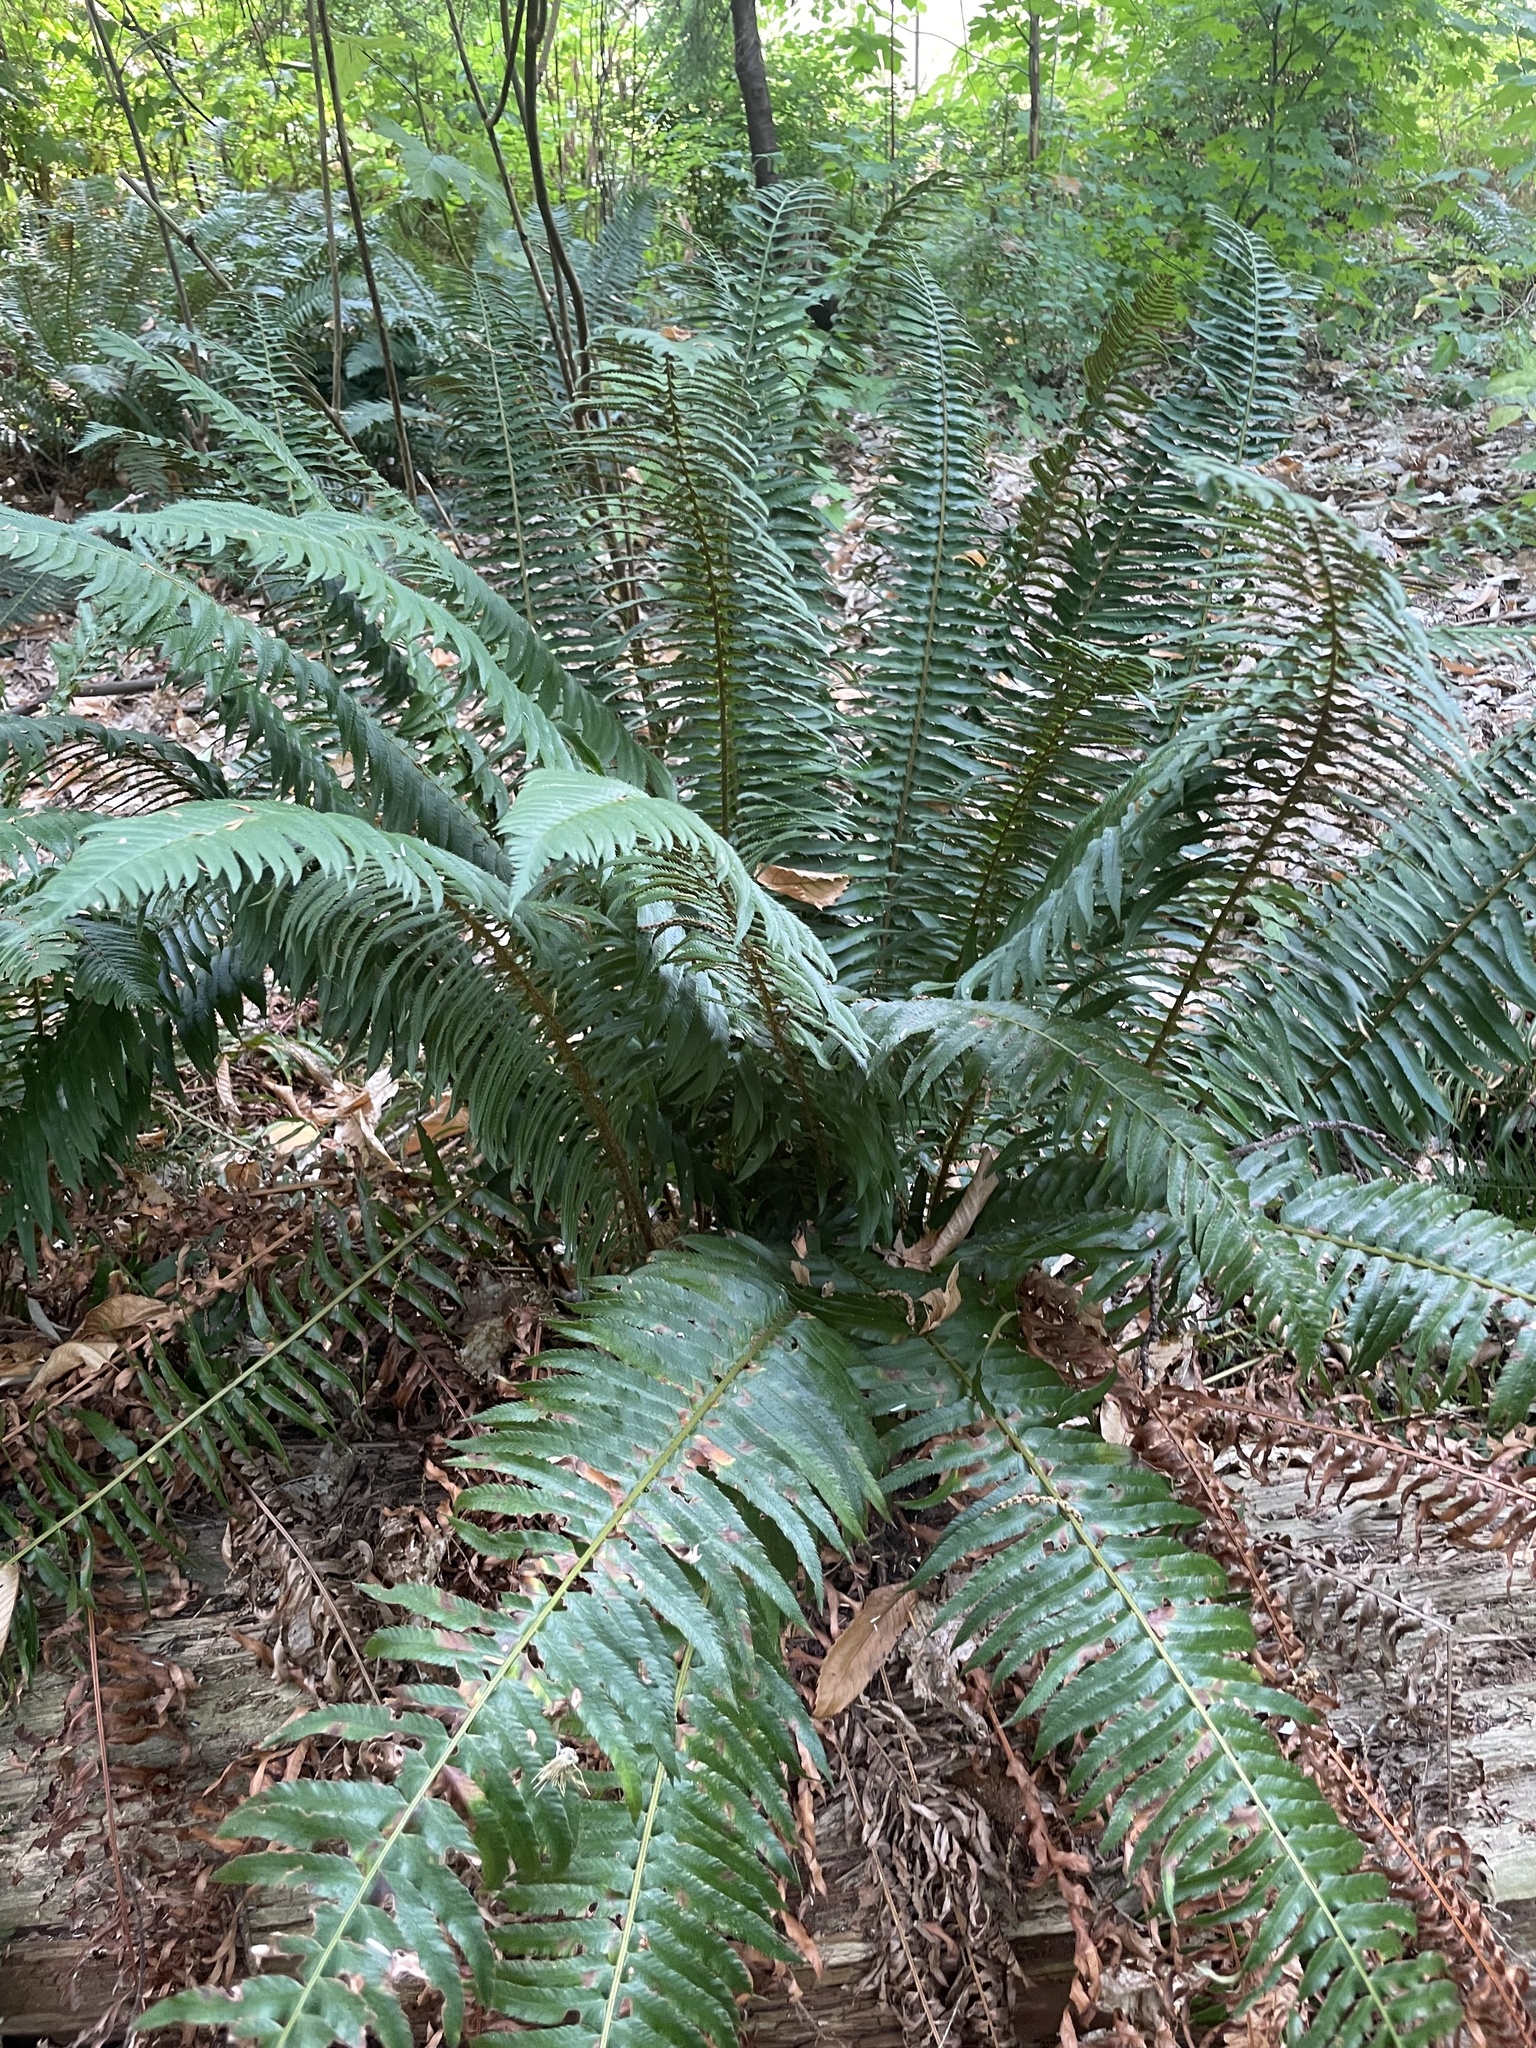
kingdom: Plantae
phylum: Tracheophyta
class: Polypodiopsida
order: Polypodiales
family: Dryopteridaceae
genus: Polystichum
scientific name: Polystichum munitum
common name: Western sword-fern
